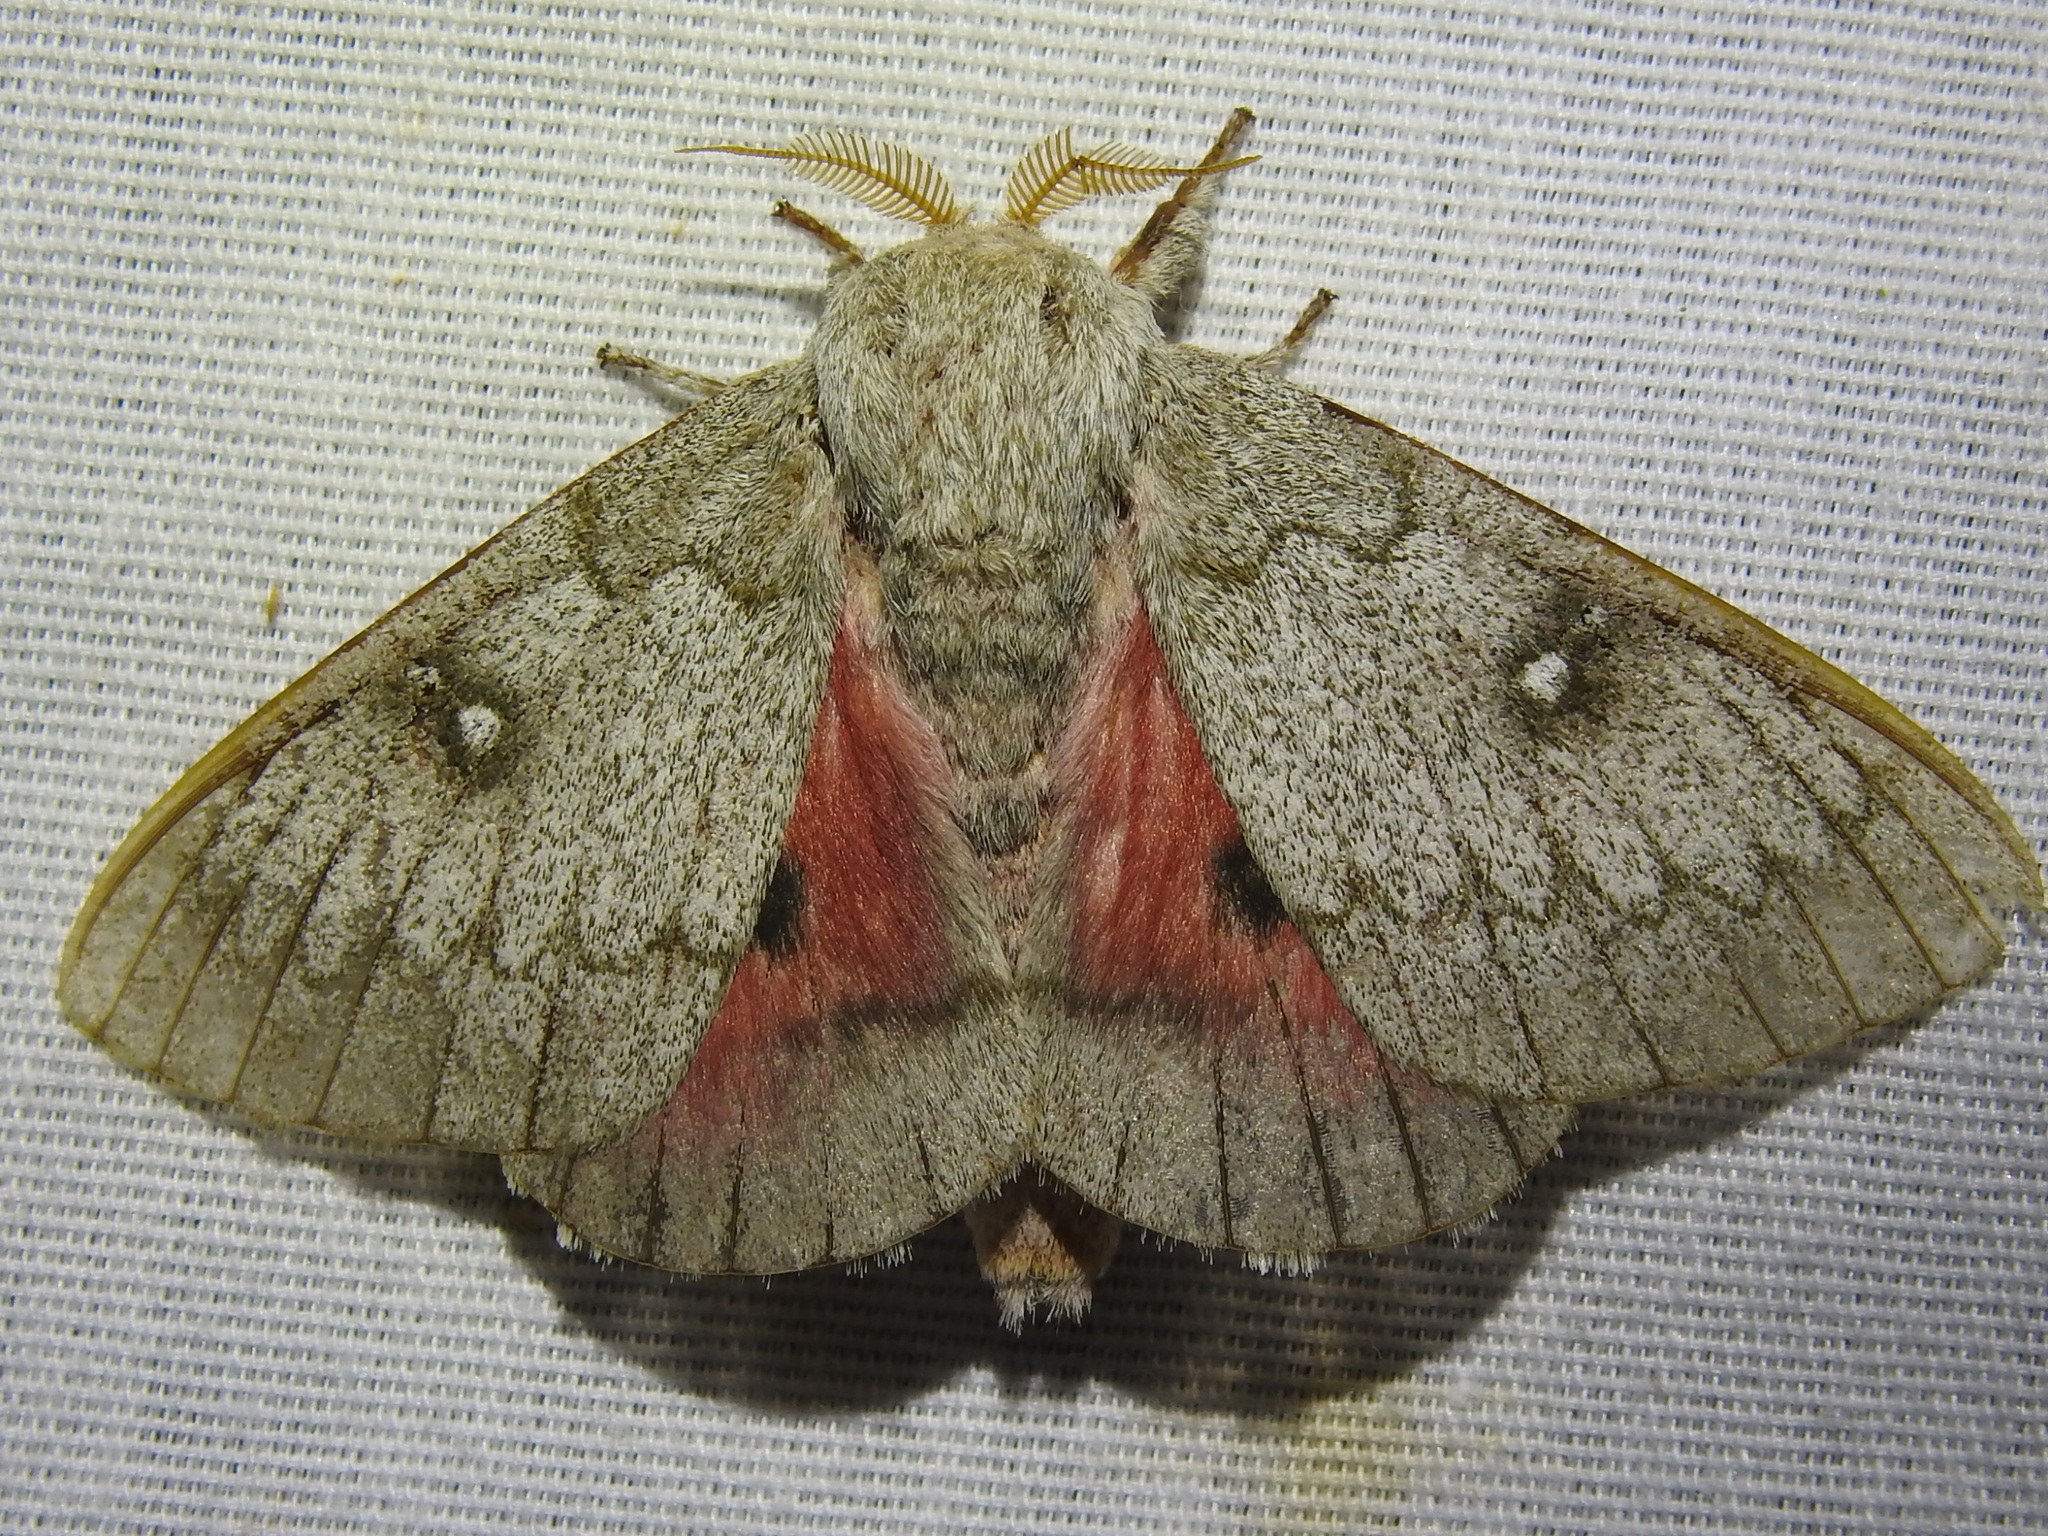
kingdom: Animalia
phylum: Arthropoda
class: Insecta
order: Lepidoptera
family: Saturniidae
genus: Syssphinx
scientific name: Syssphinx heiligbrodti
